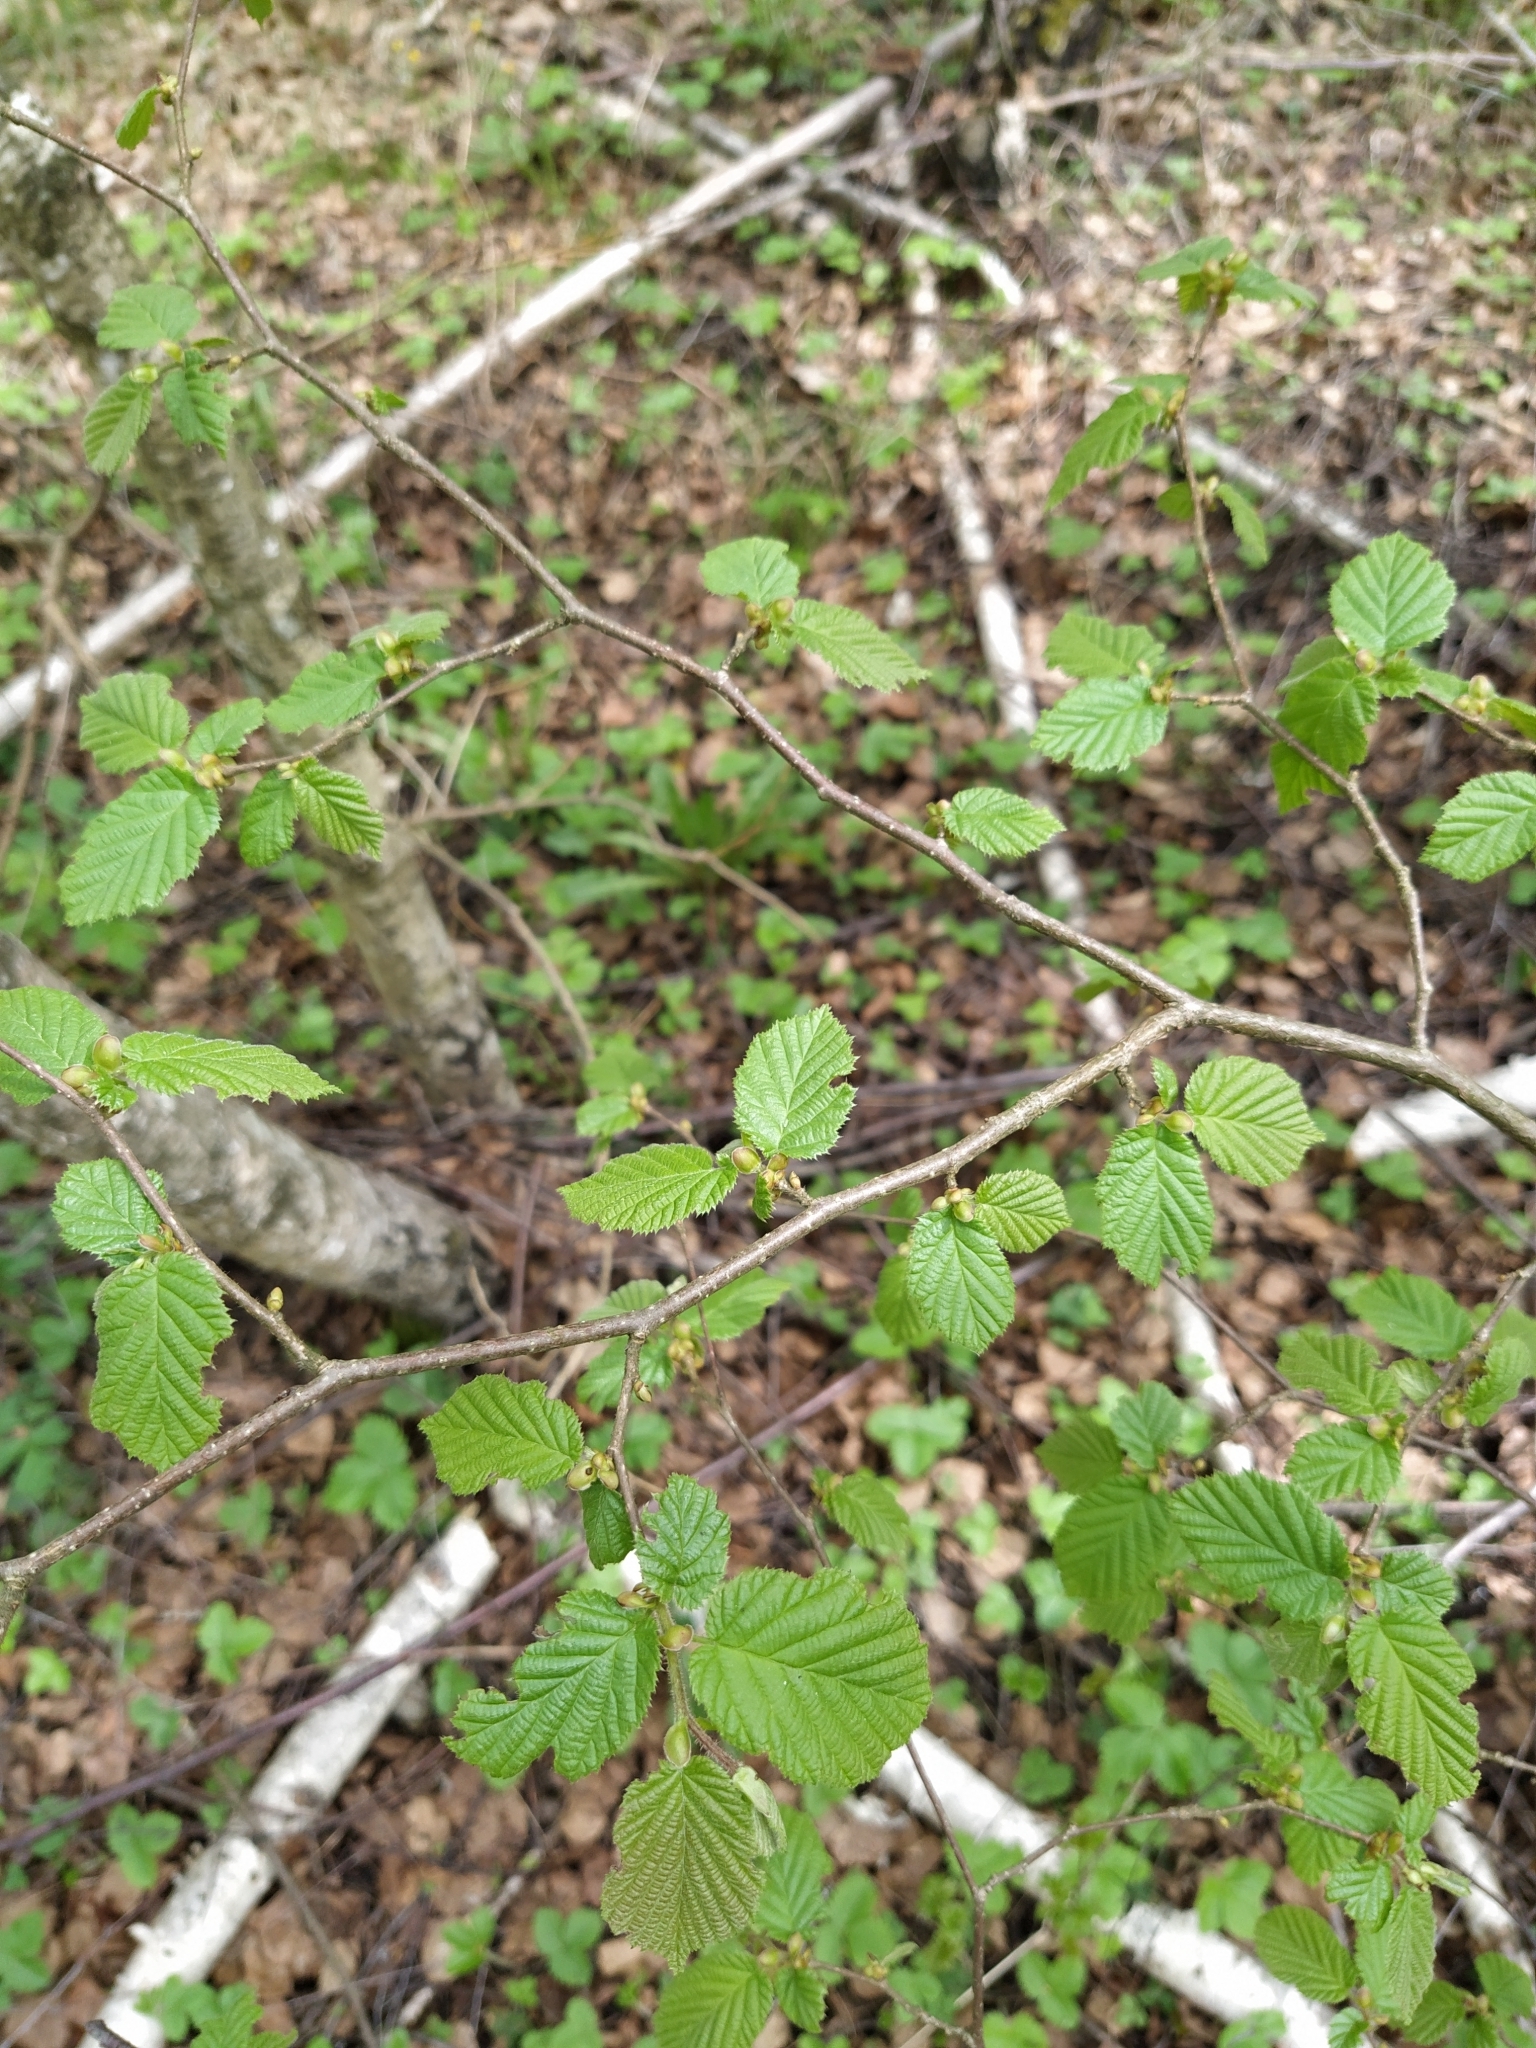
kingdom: Plantae
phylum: Tracheophyta
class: Magnoliopsida
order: Fagales
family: Betulaceae
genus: Corylus
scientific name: Corylus avellana
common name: European hazel
